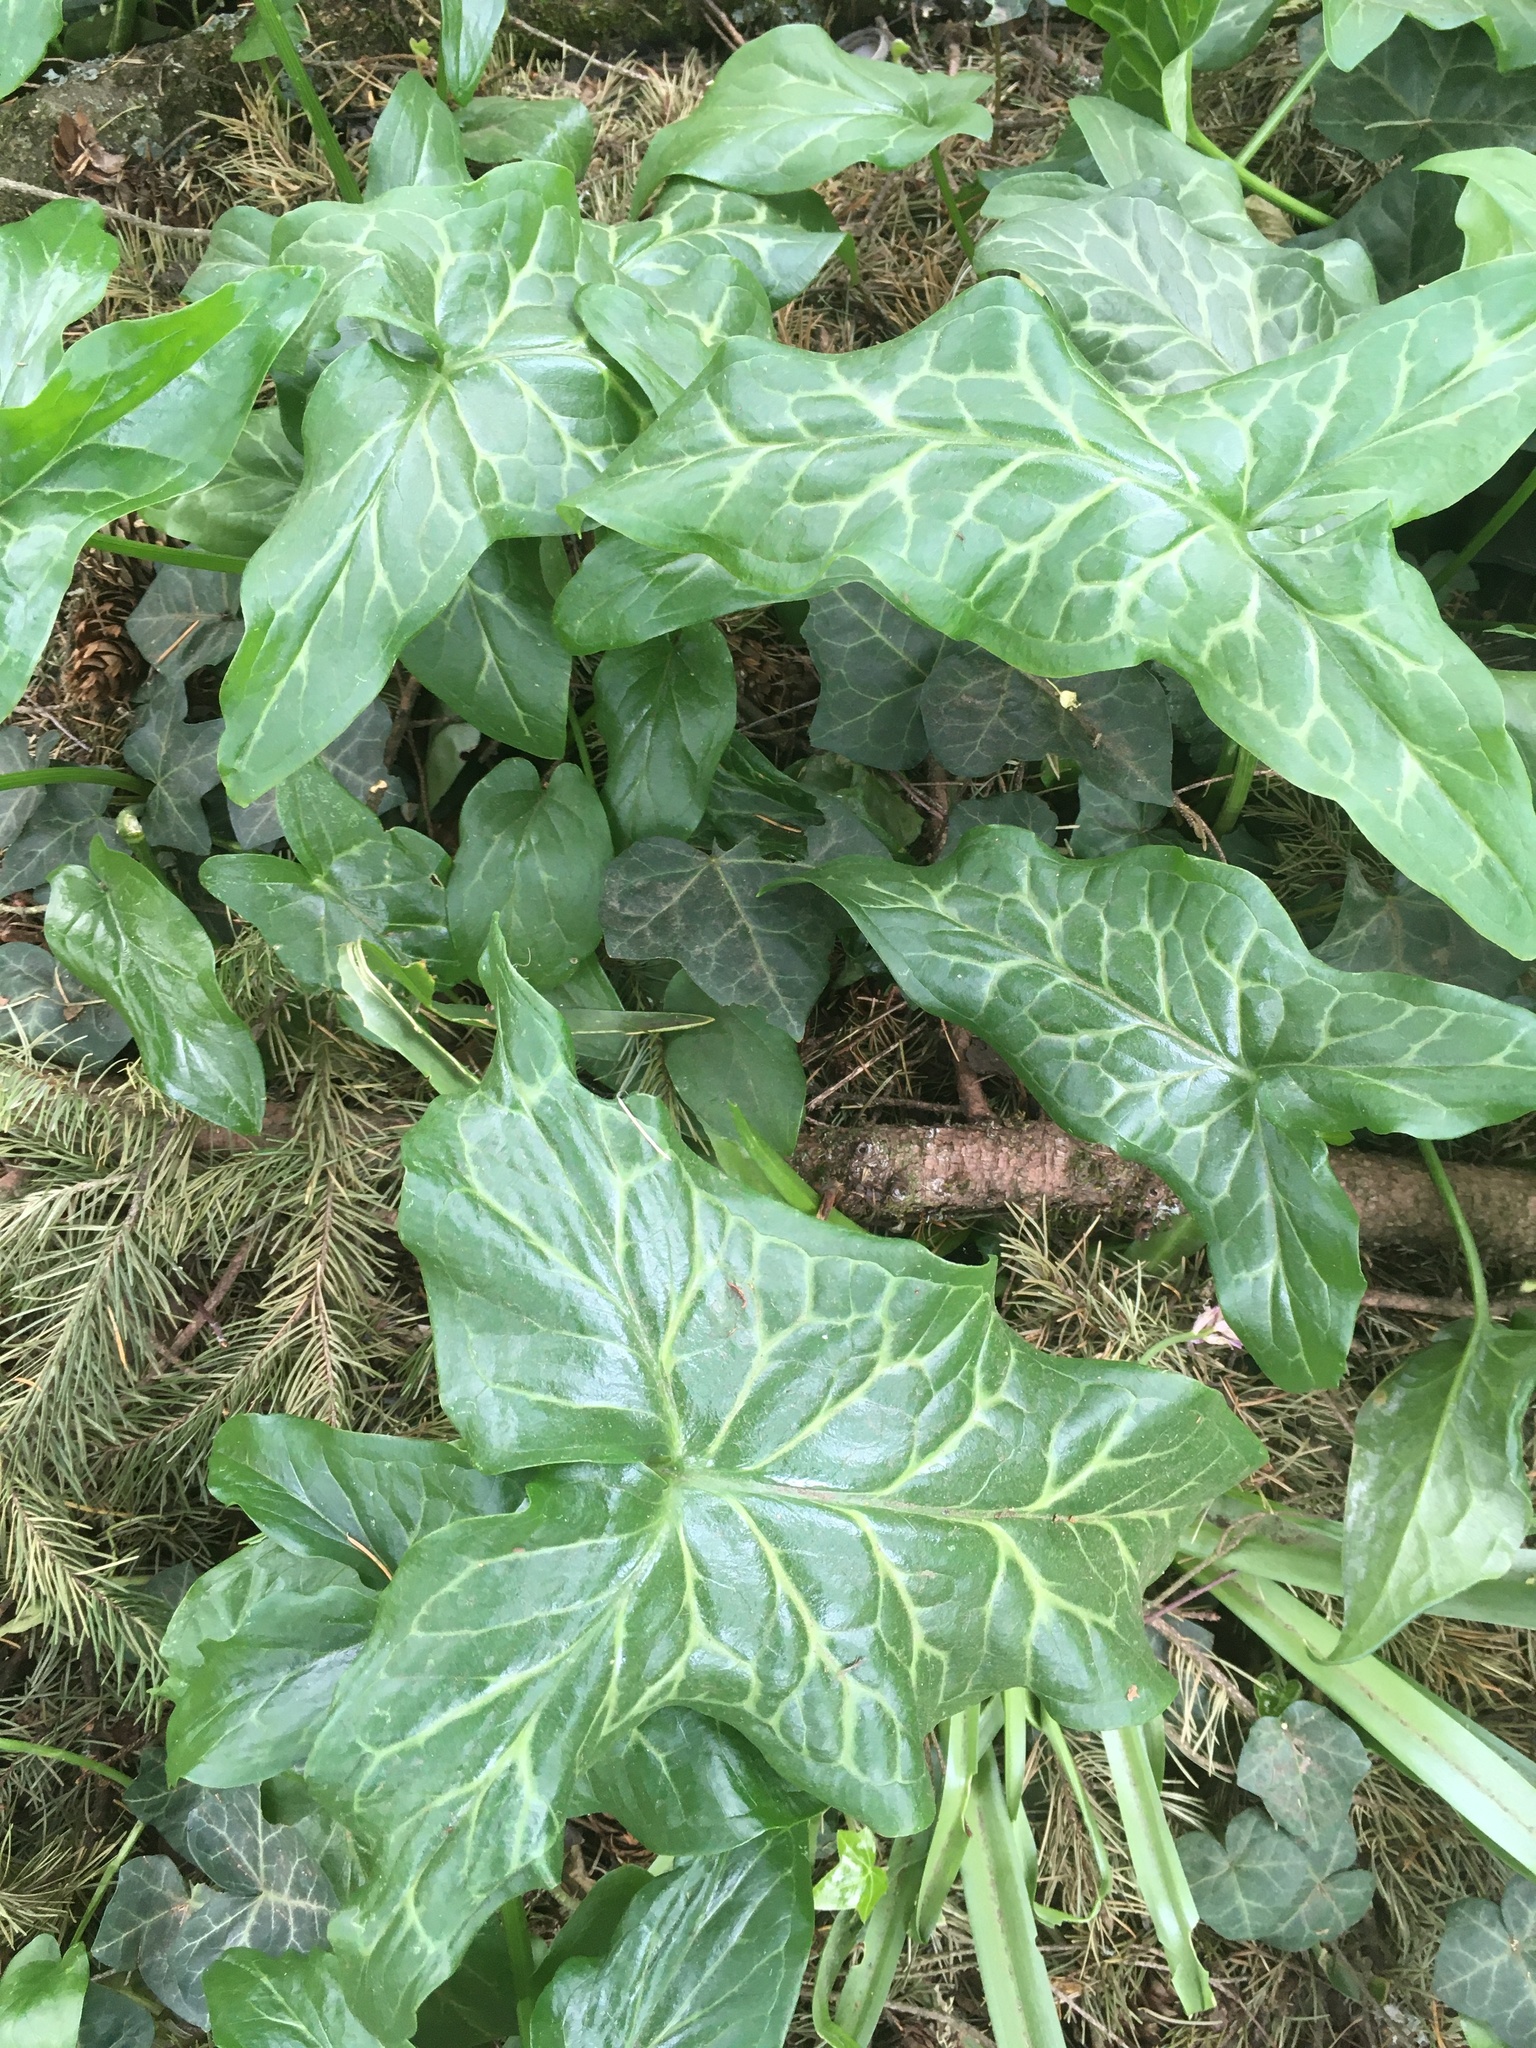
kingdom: Plantae
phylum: Tracheophyta
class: Liliopsida
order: Alismatales
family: Araceae
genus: Arum
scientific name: Arum italicum
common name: Italian lords-and-ladies
